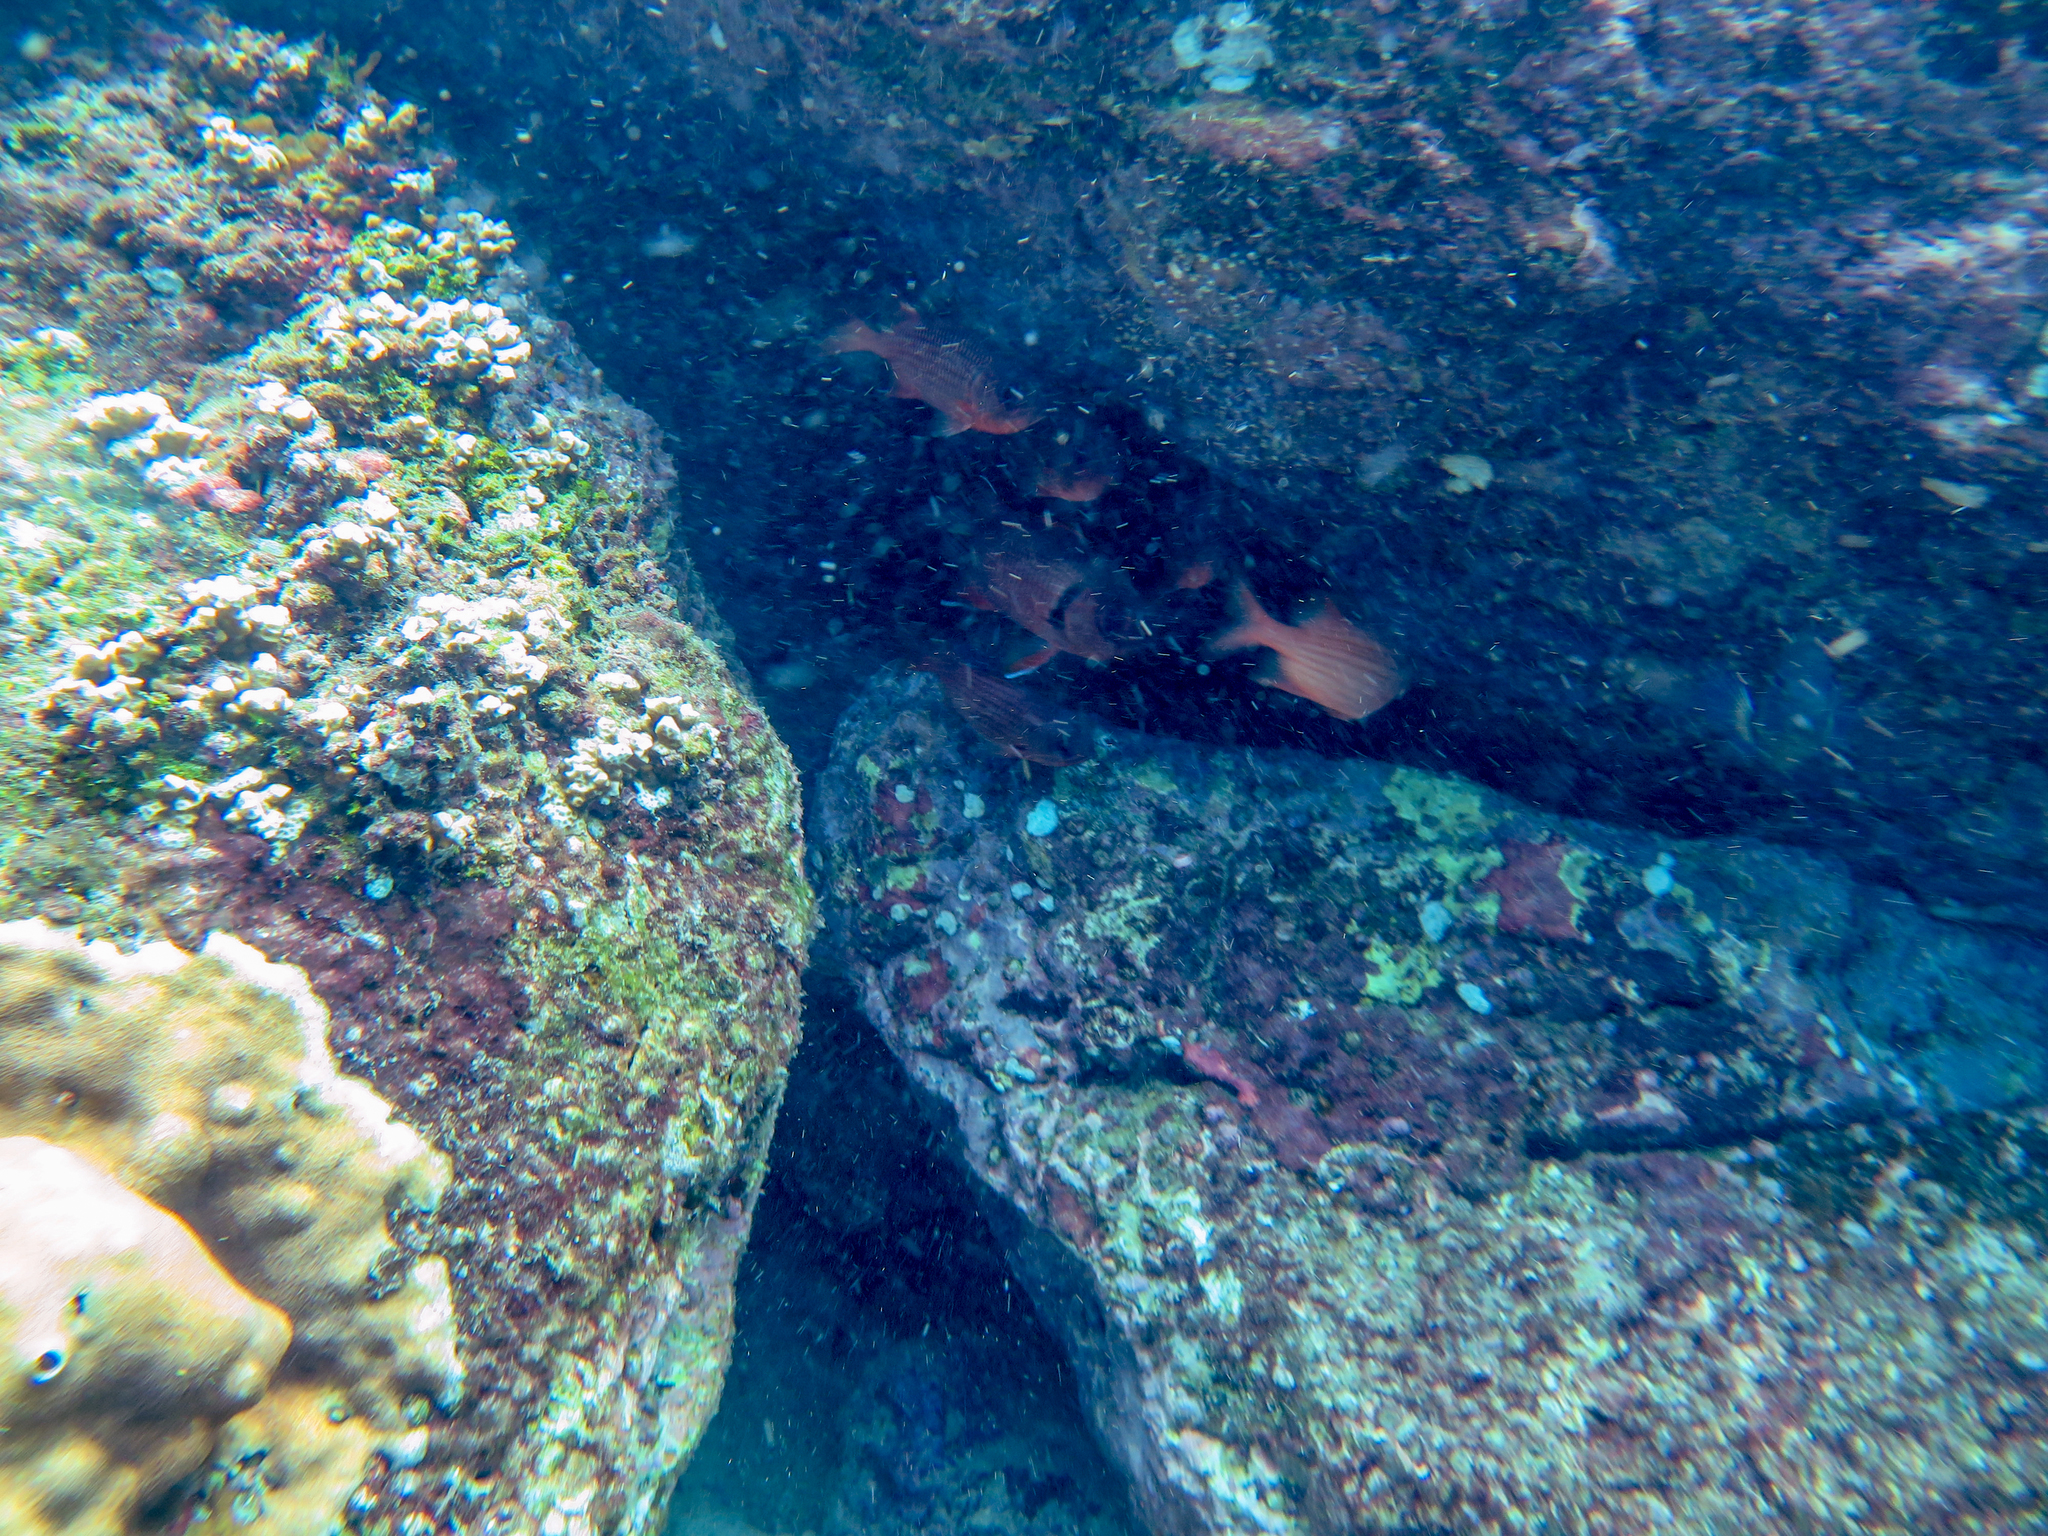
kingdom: Animalia
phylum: Chordata
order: Beryciformes
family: Holocentridae
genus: Myripristis
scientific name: Myripristis berndti
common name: Bigscale soldierfish
